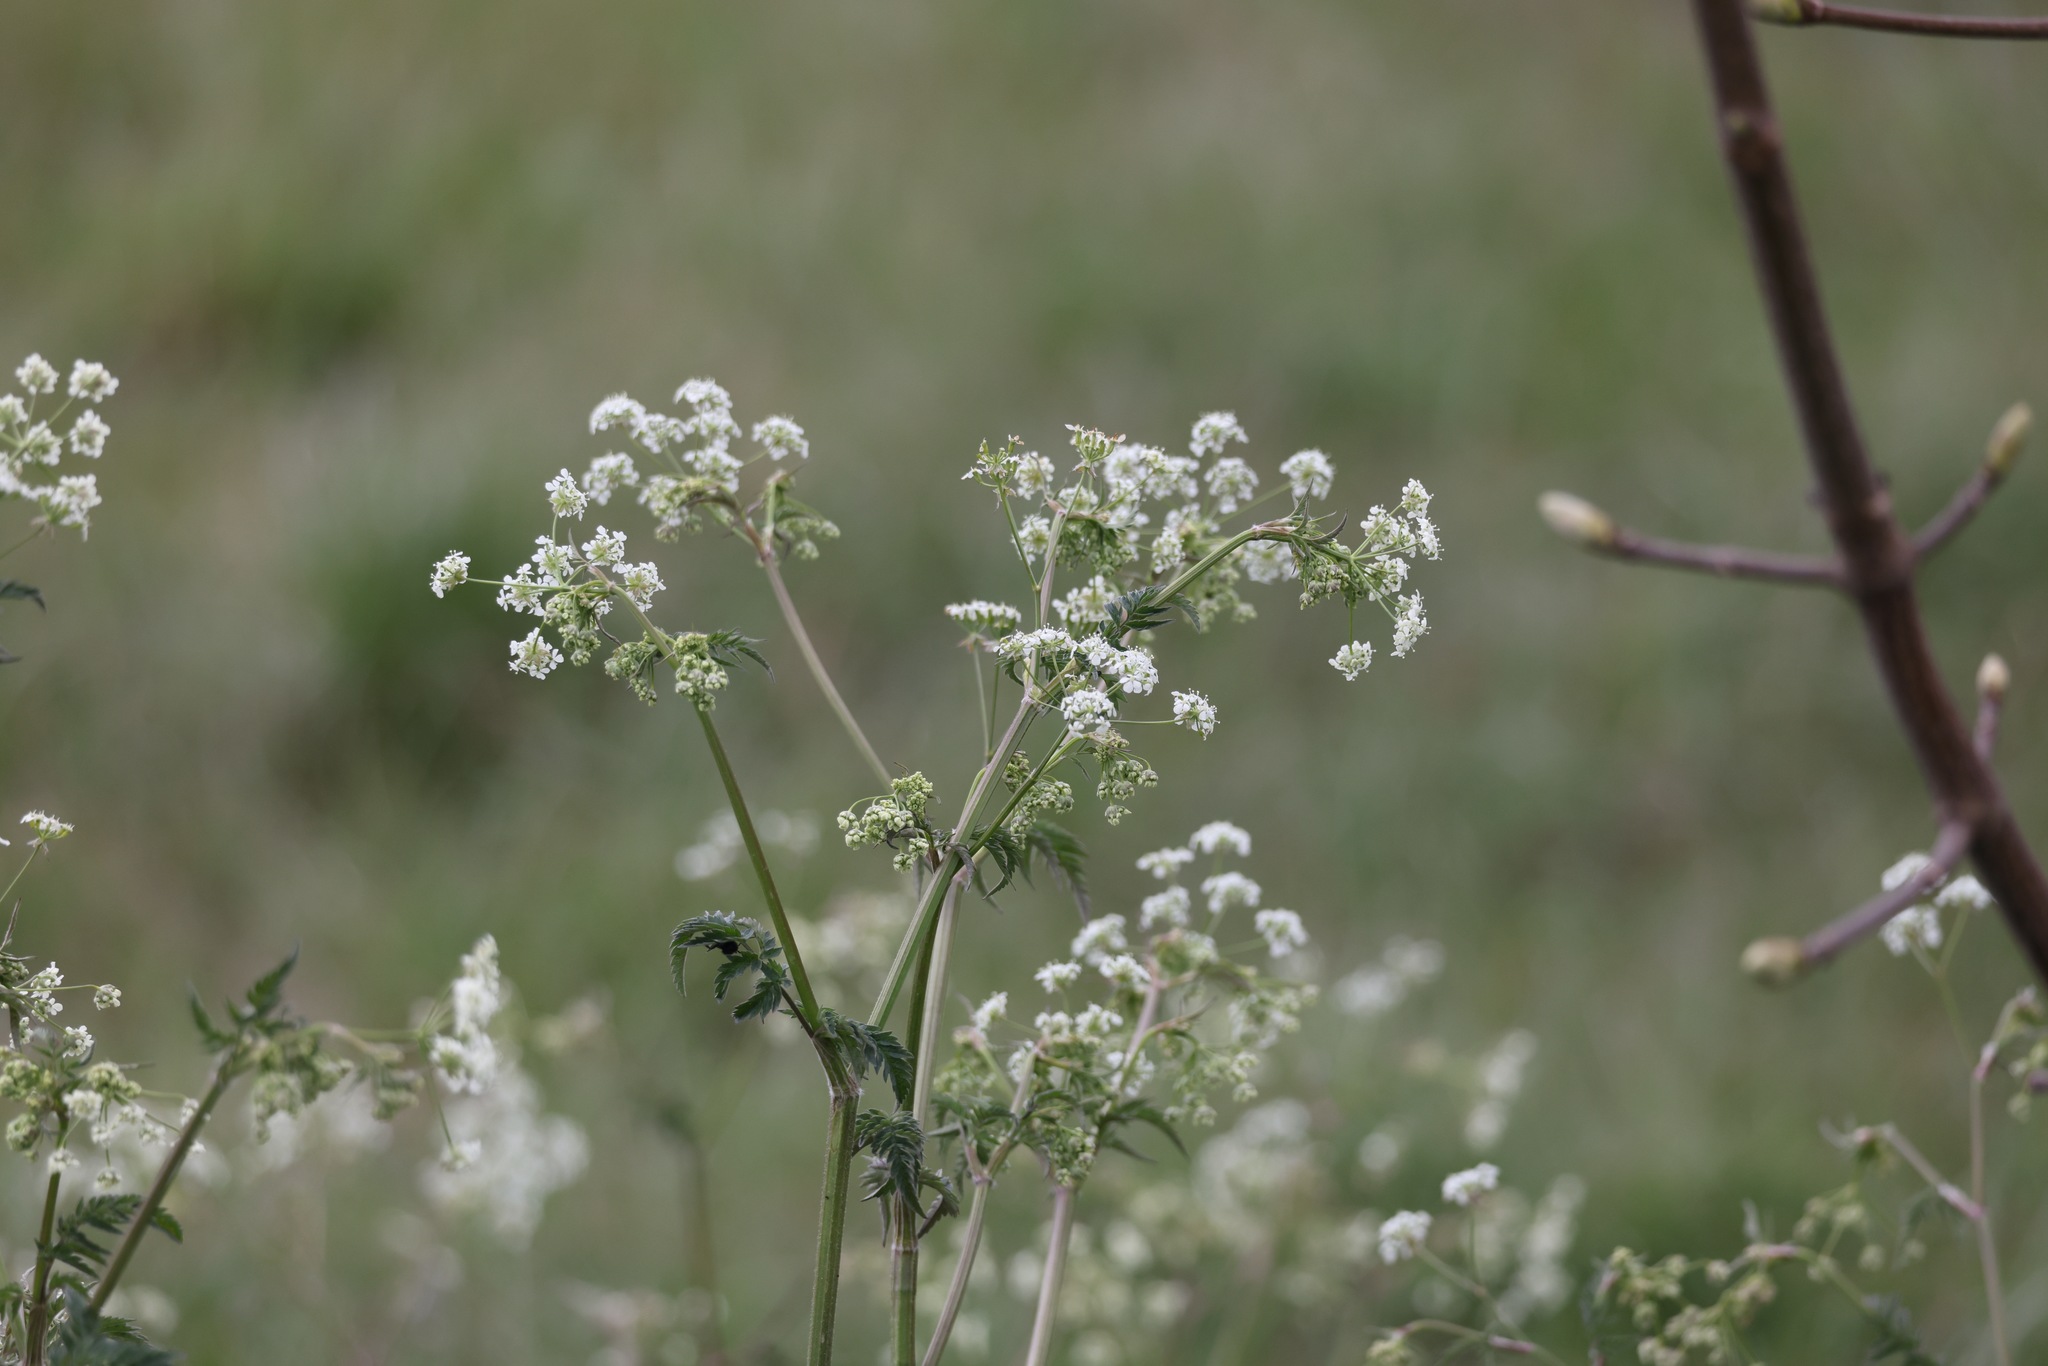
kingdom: Plantae
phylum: Tracheophyta
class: Magnoliopsida
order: Apiales
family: Apiaceae
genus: Anthriscus
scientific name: Anthriscus sylvestris
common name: Cow parsley
